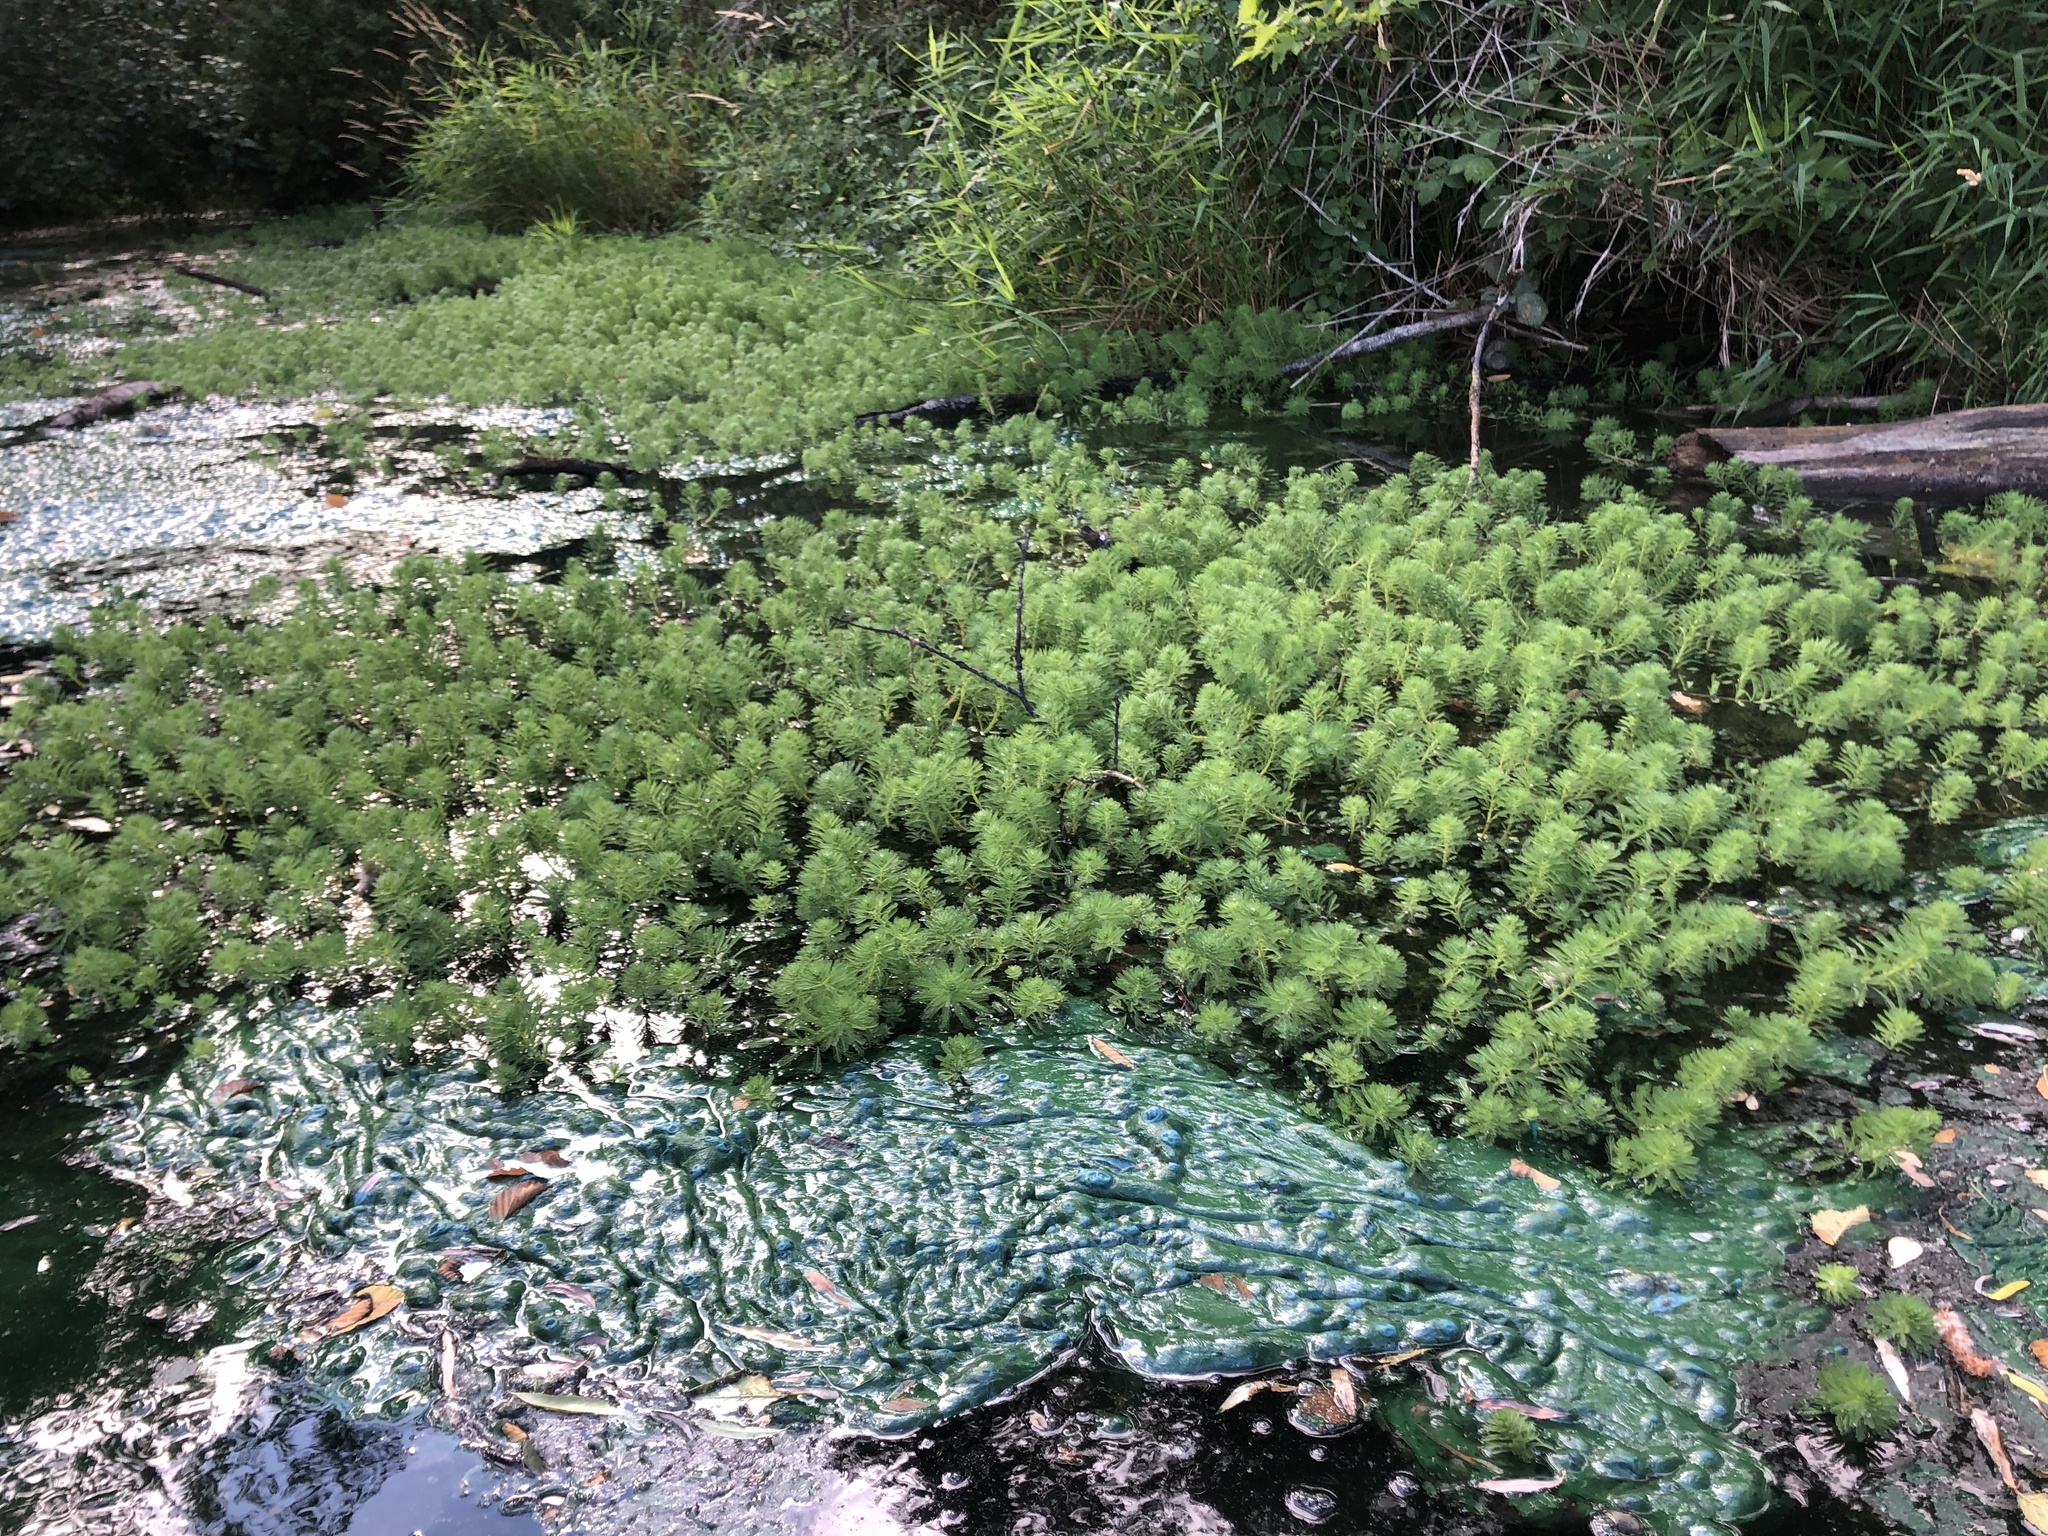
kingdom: Plantae
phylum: Tracheophyta
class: Magnoliopsida
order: Saxifragales
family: Haloragaceae
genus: Myriophyllum
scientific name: Myriophyllum aquaticum
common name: Parrot's feather
